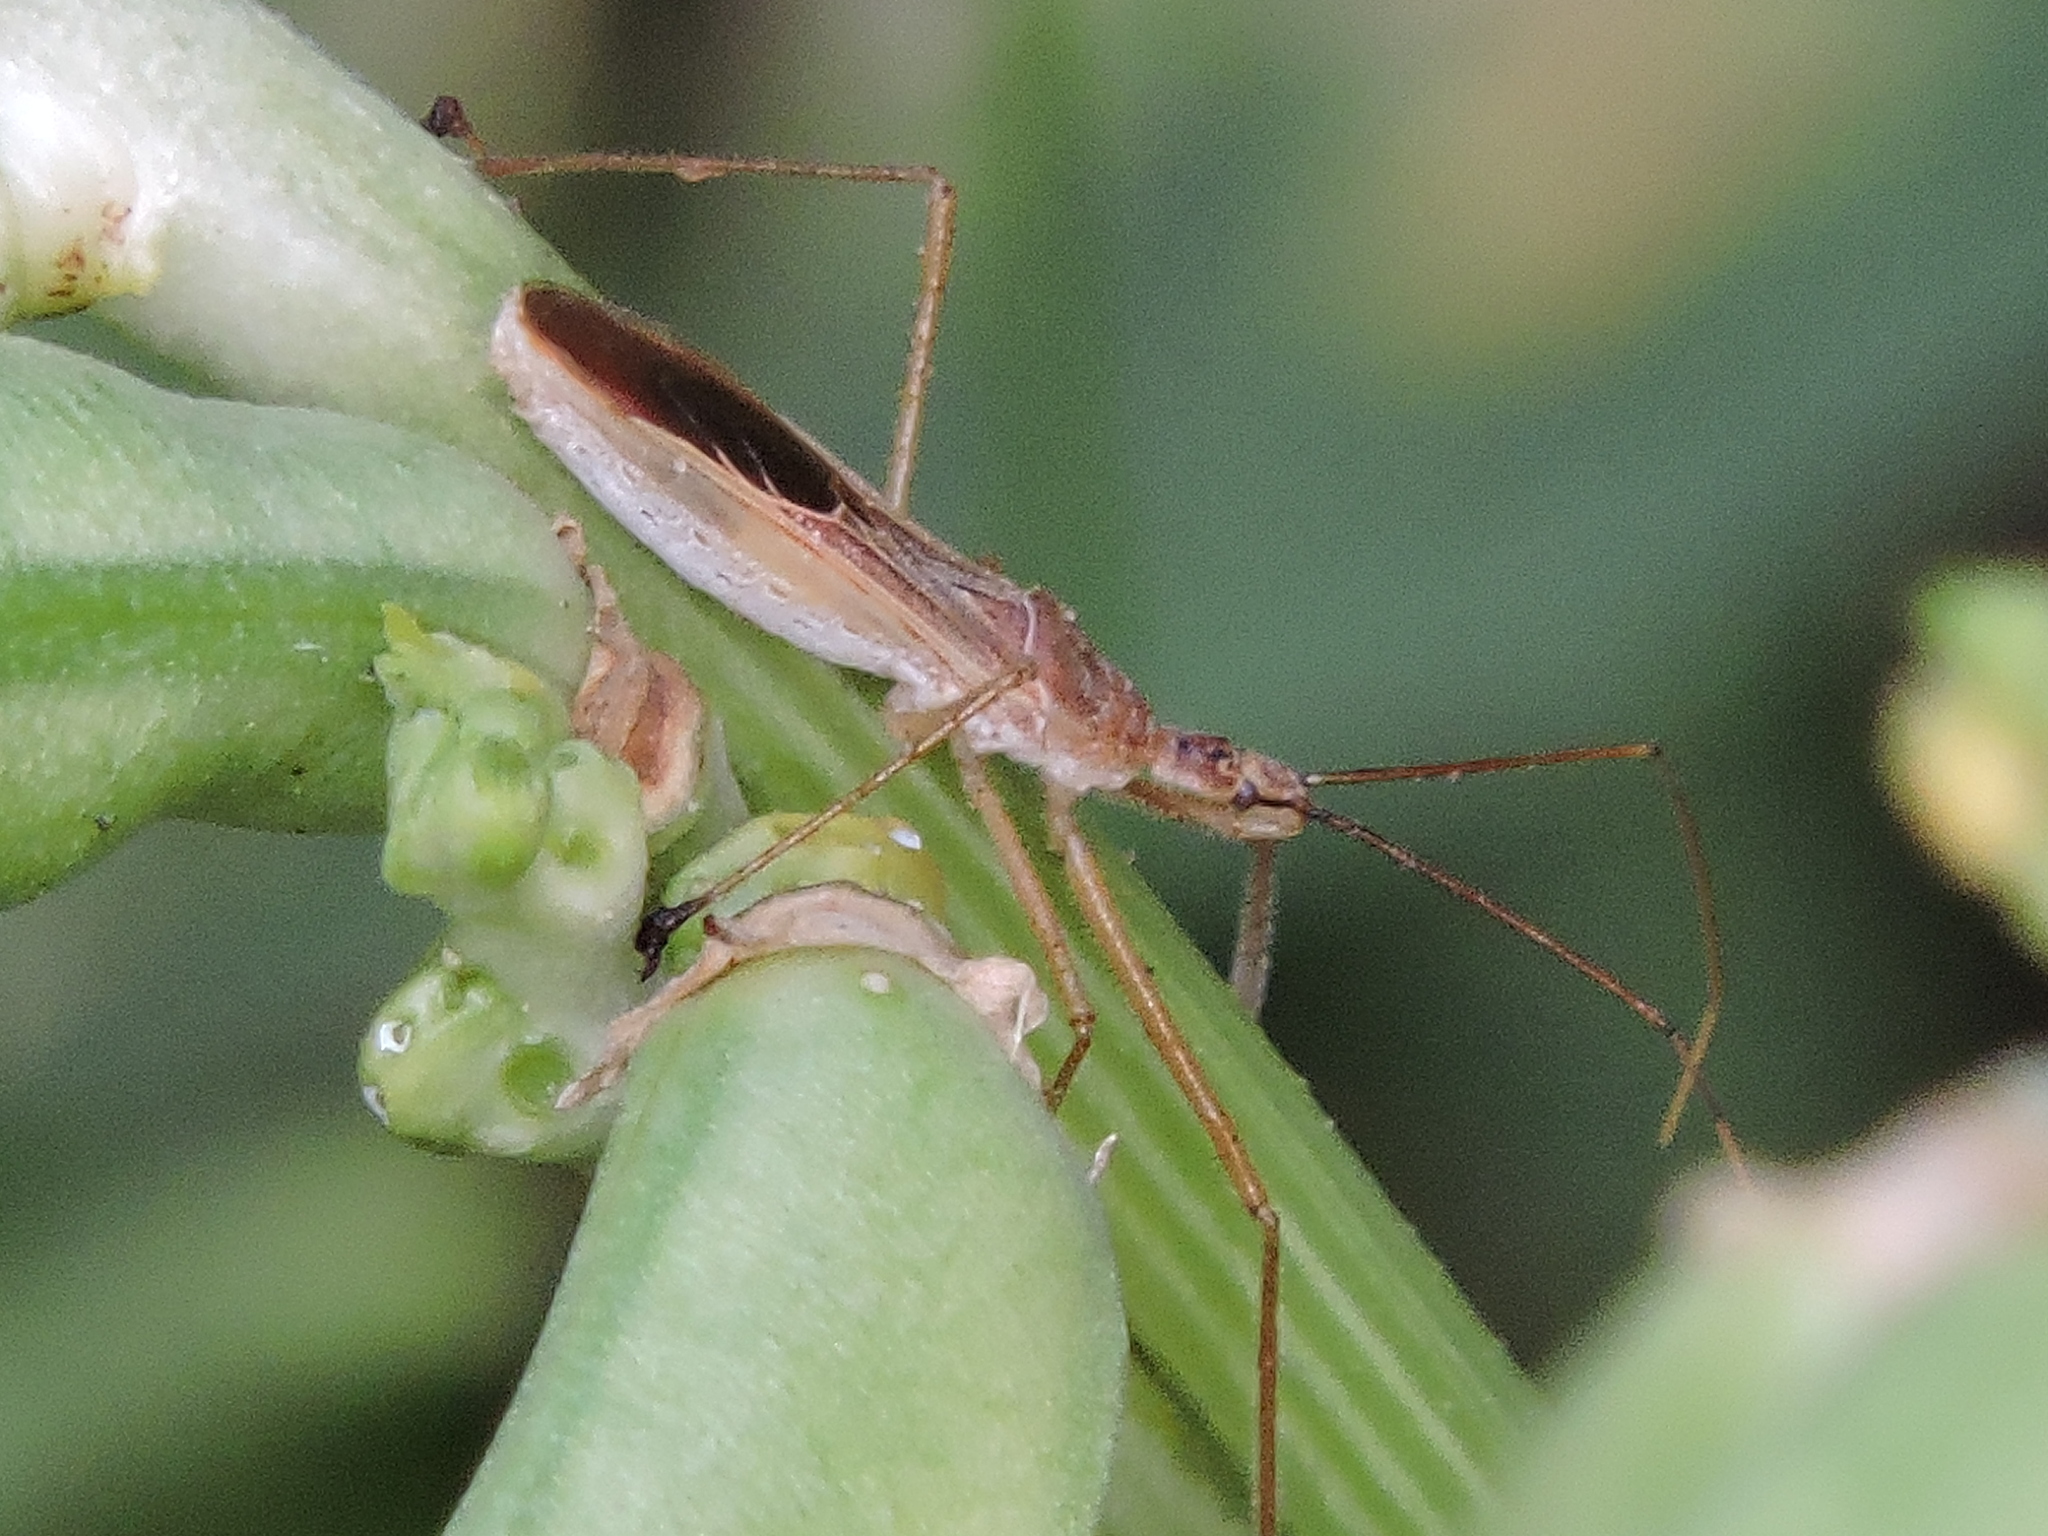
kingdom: Animalia
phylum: Arthropoda
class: Insecta
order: Hemiptera
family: Reduviidae
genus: Zelus
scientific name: Zelus cervicalis
